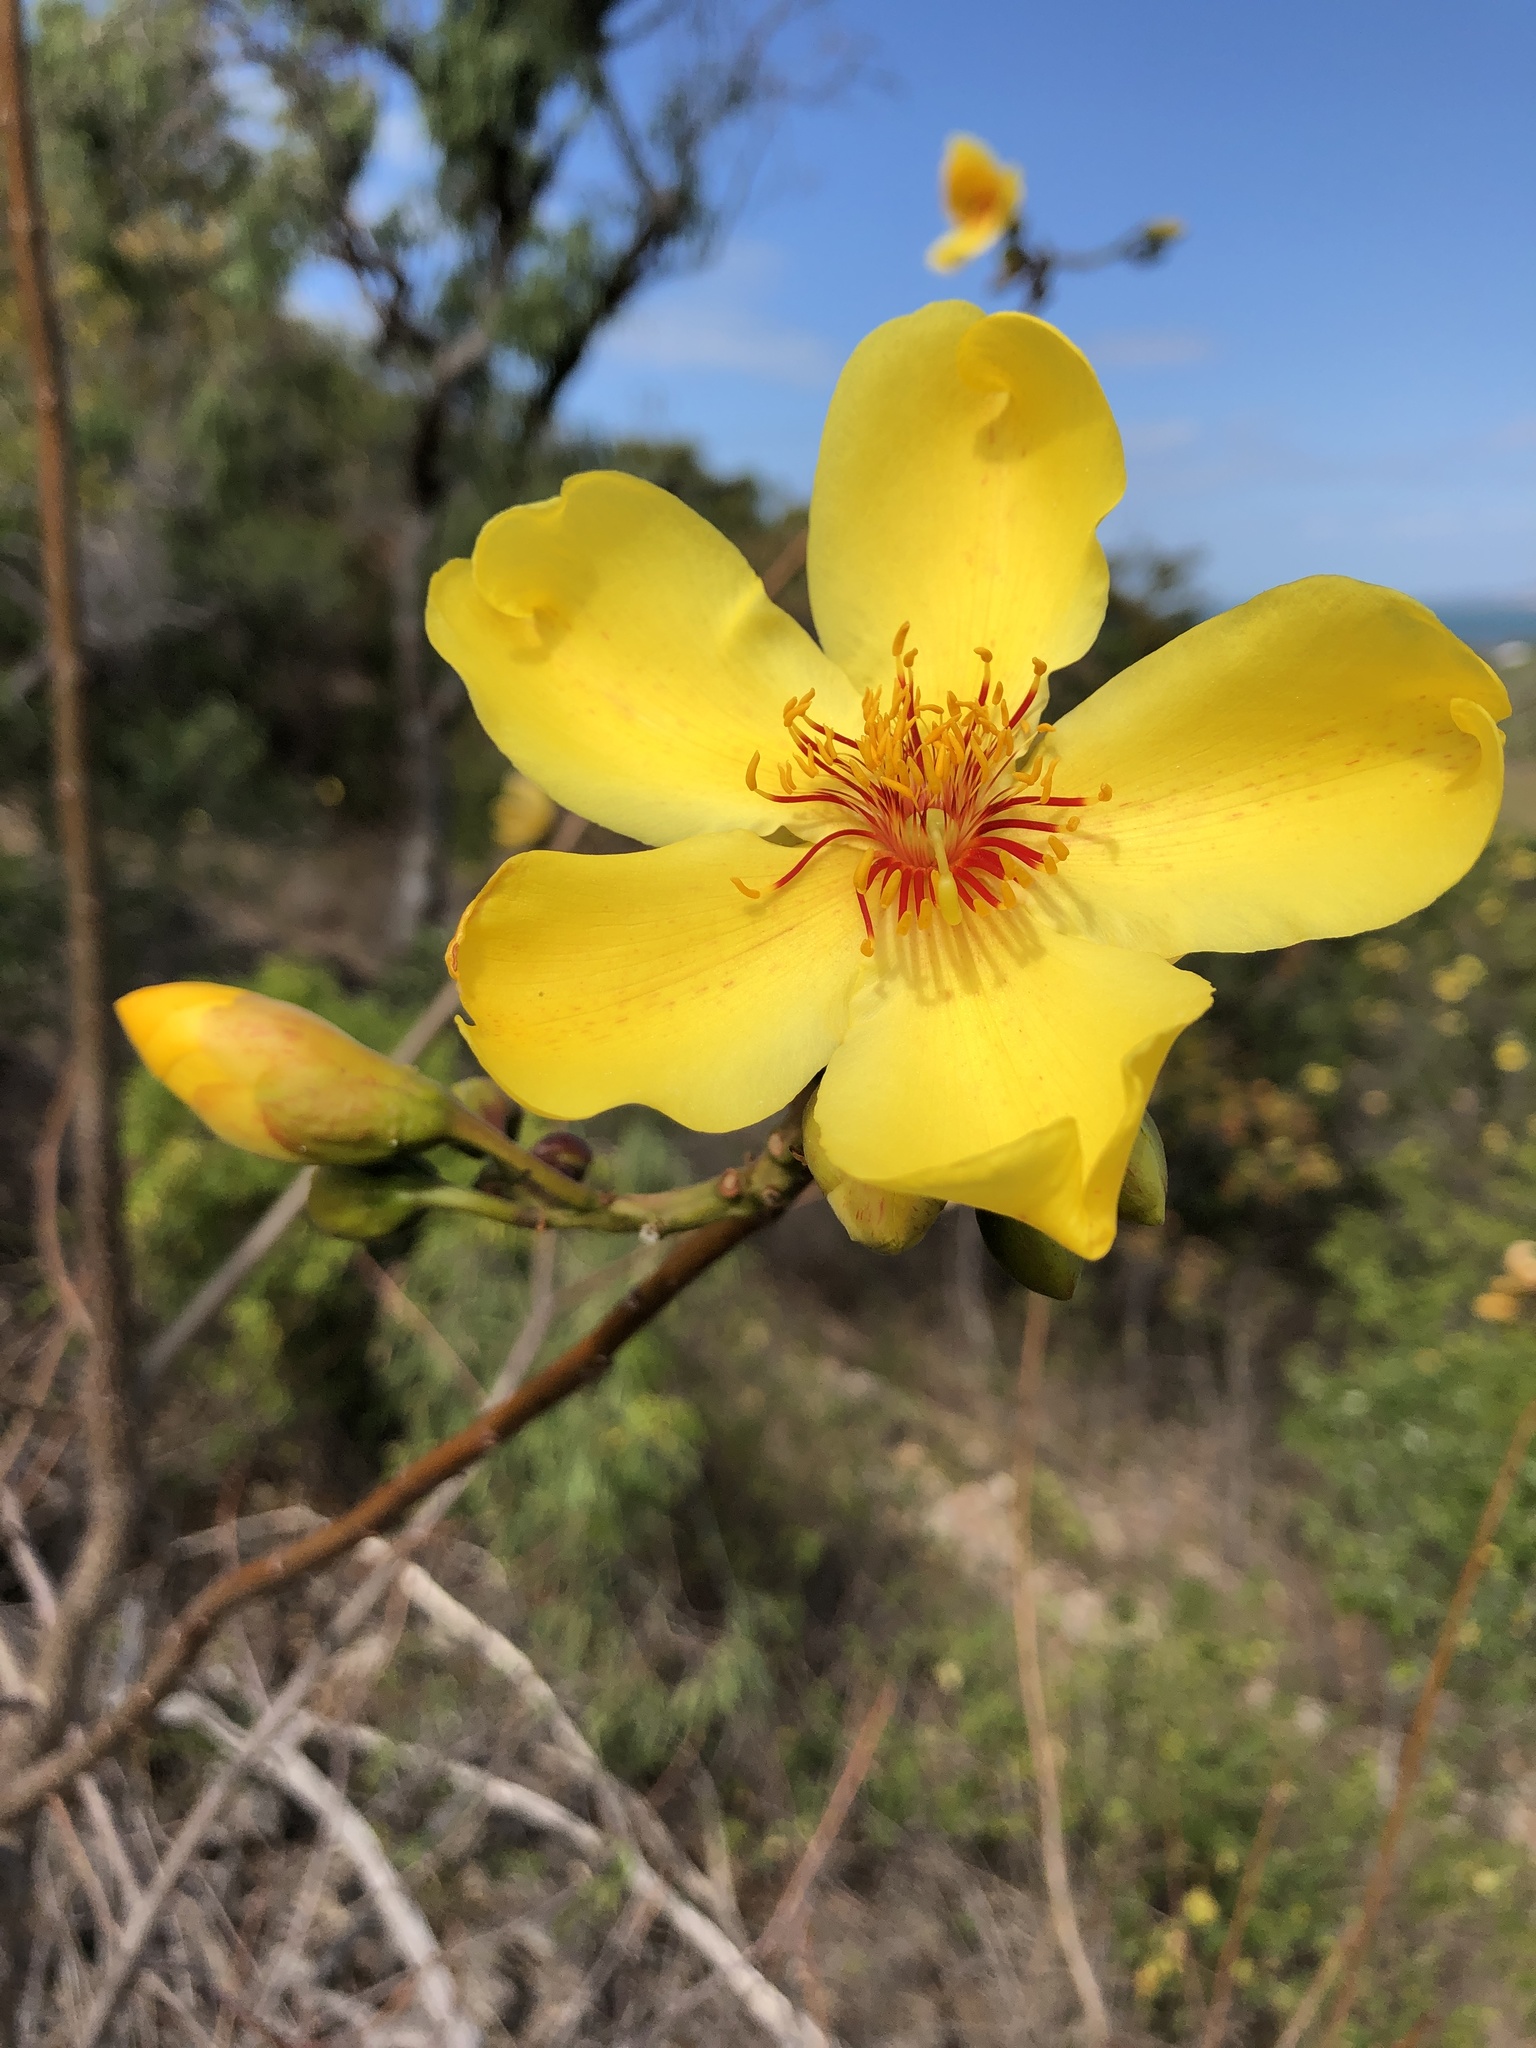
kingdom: Plantae
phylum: Tracheophyta
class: Magnoliopsida
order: Malvales
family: Cochlospermaceae
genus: Cochlospermum
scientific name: Cochlospermum gillivraei
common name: Cottontree
